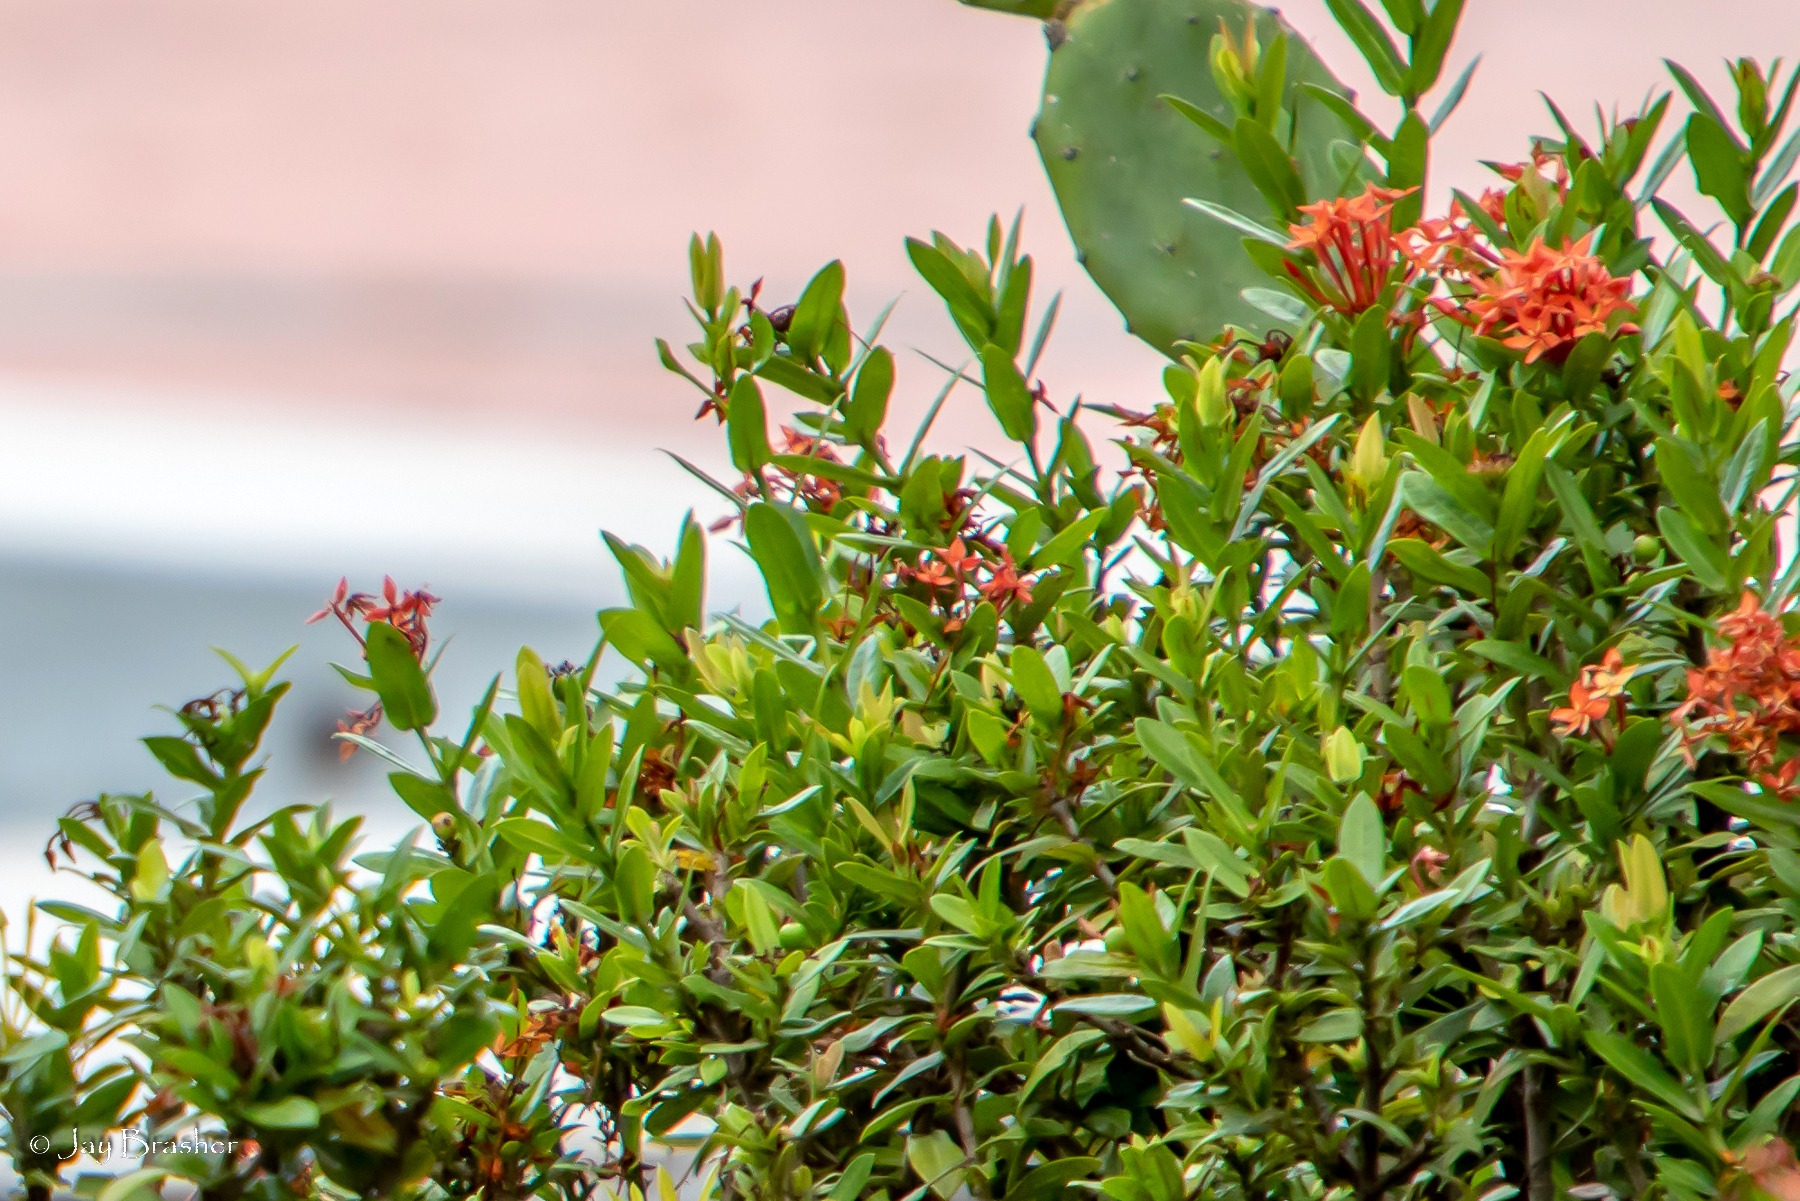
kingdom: Plantae
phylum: Tracheophyta
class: Magnoliopsida
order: Gentianales
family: Rubiaceae
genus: Ixora
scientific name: Ixora coccinea
